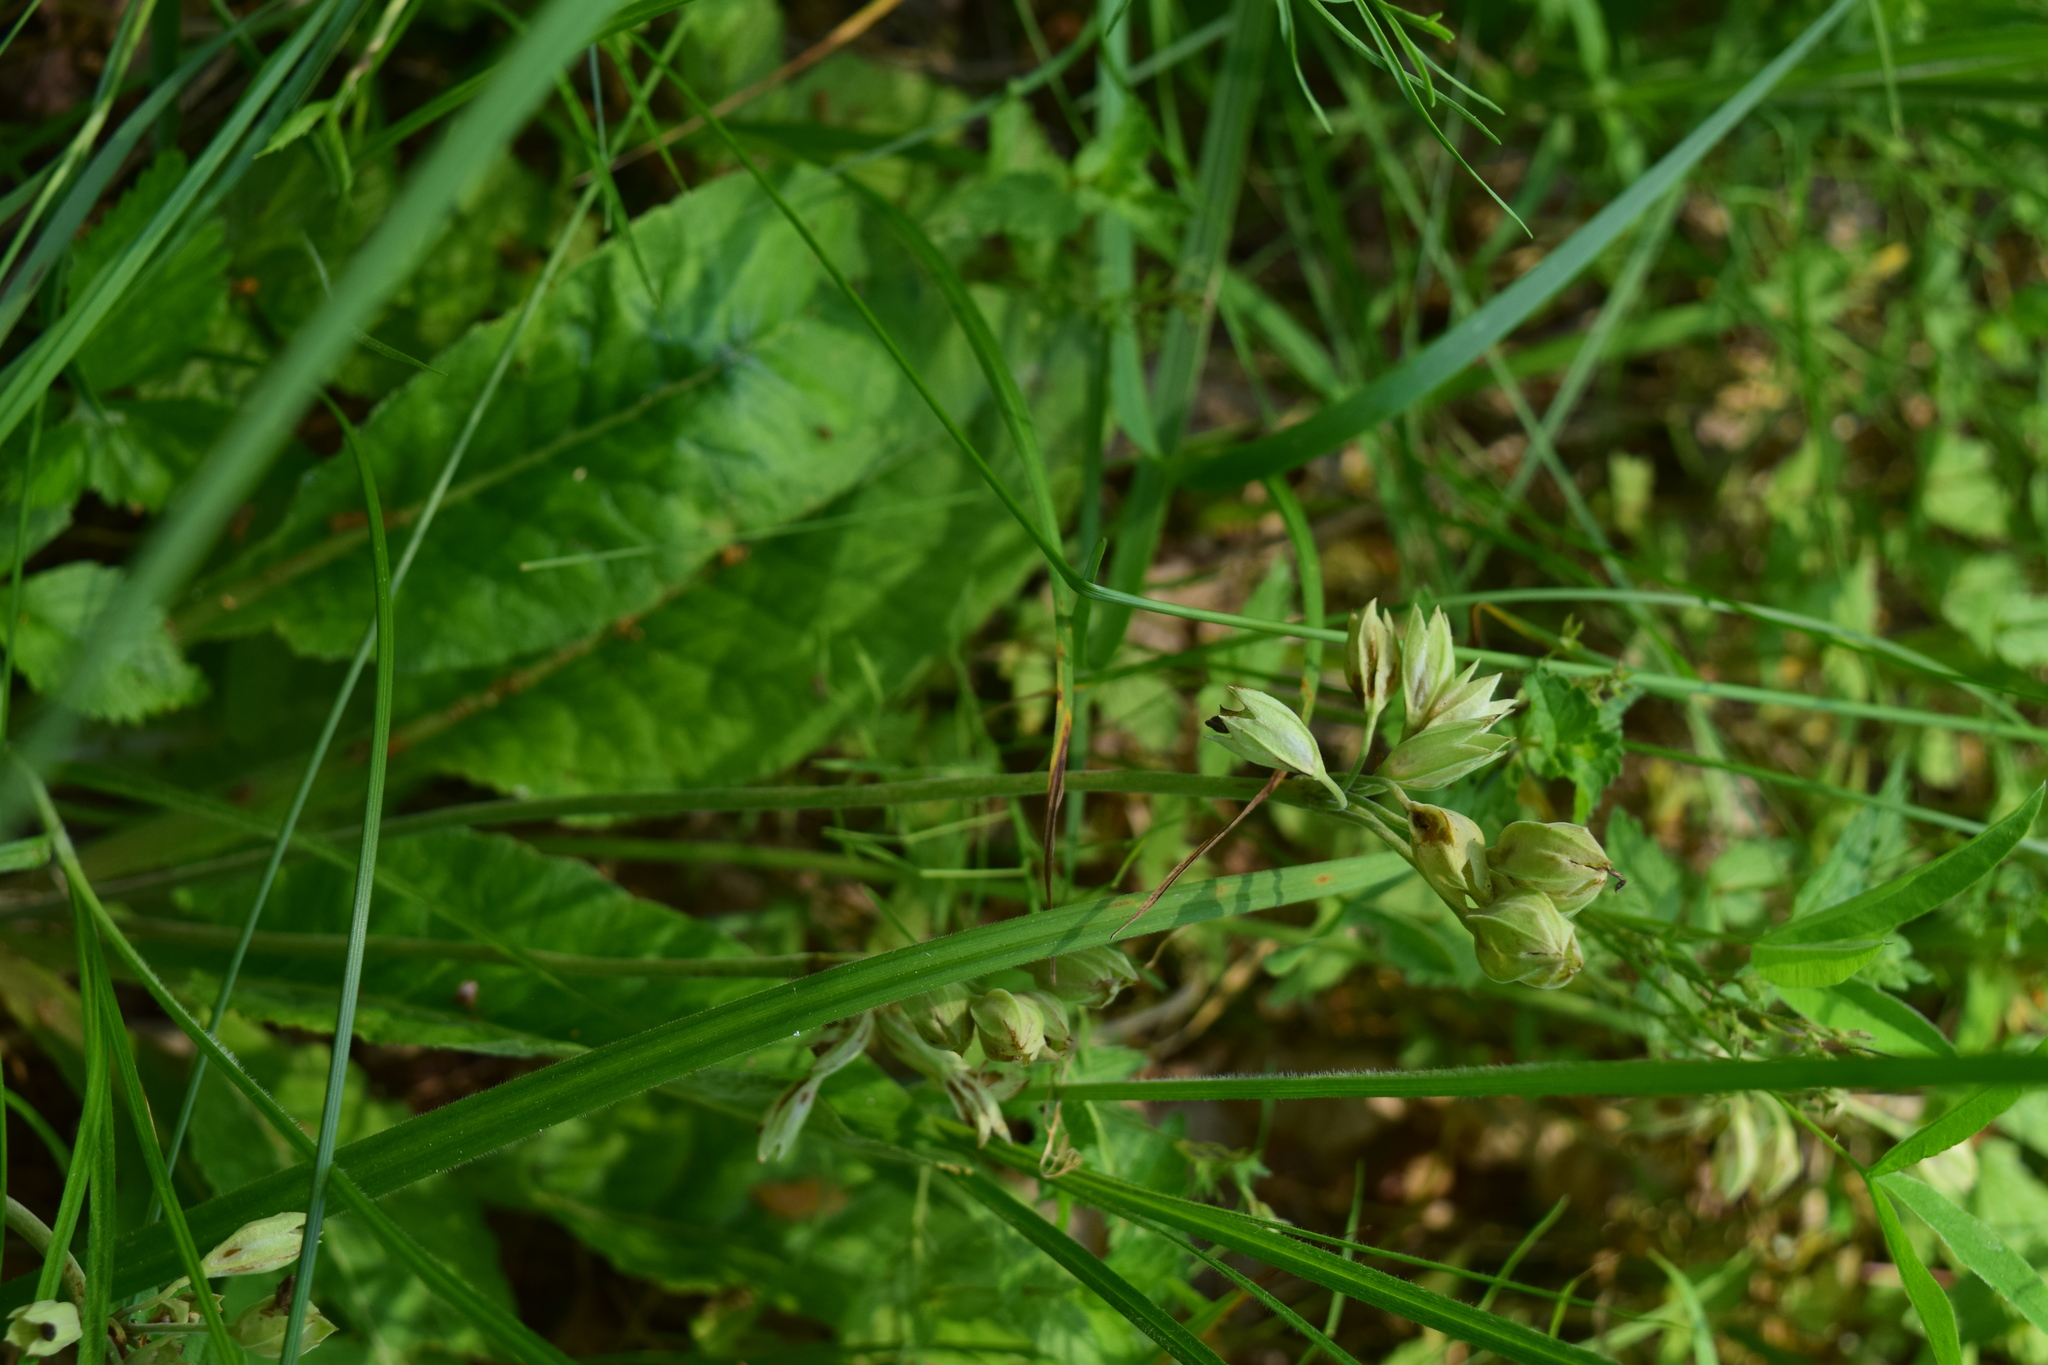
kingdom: Plantae
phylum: Tracheophyta
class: Magnoliopsida
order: Ericales
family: Primulaceae
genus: Primula
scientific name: Primula veris
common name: Cowslip
